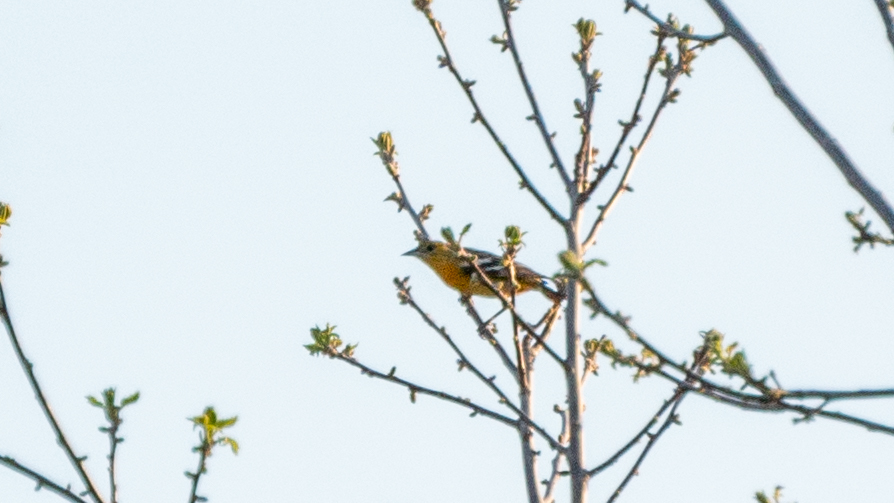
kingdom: Animalia
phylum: Chordata
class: Aves
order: Passeriformes
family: Icteridae
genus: Icterus
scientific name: Icterus galbula
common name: Baltimore oriole
